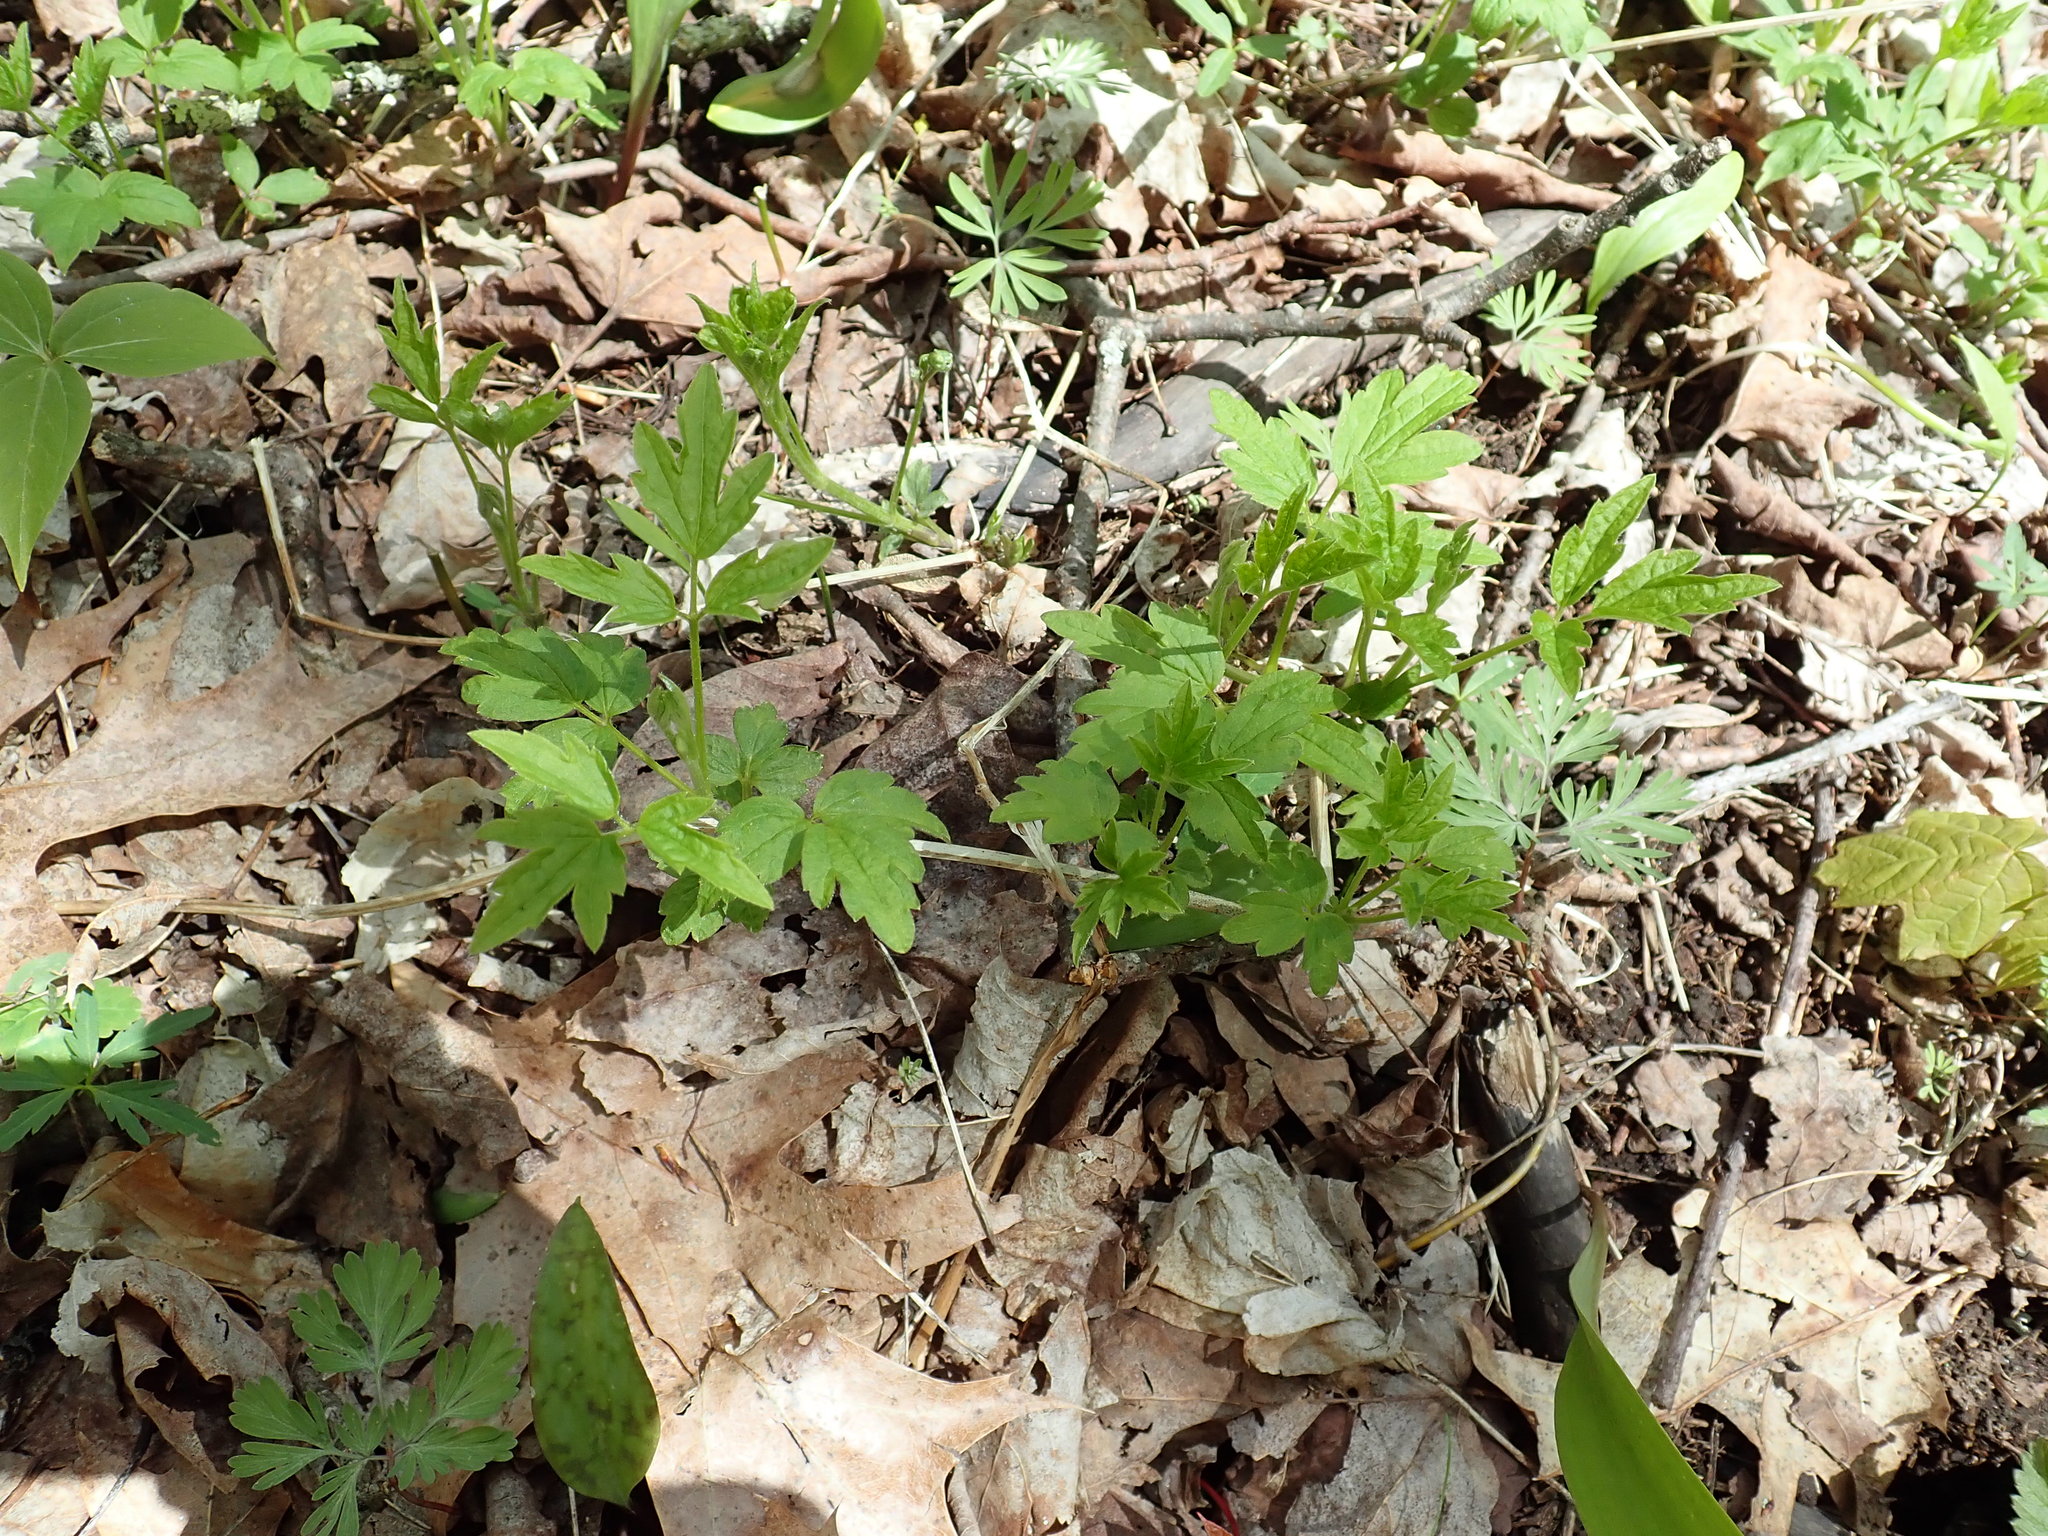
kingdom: Plantae
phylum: Tracheophyta
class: Magnoliopsida
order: Ranunculales
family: Ranunculaceae
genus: Clematis
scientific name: Clematis virginiana
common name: Virgin's-bower
